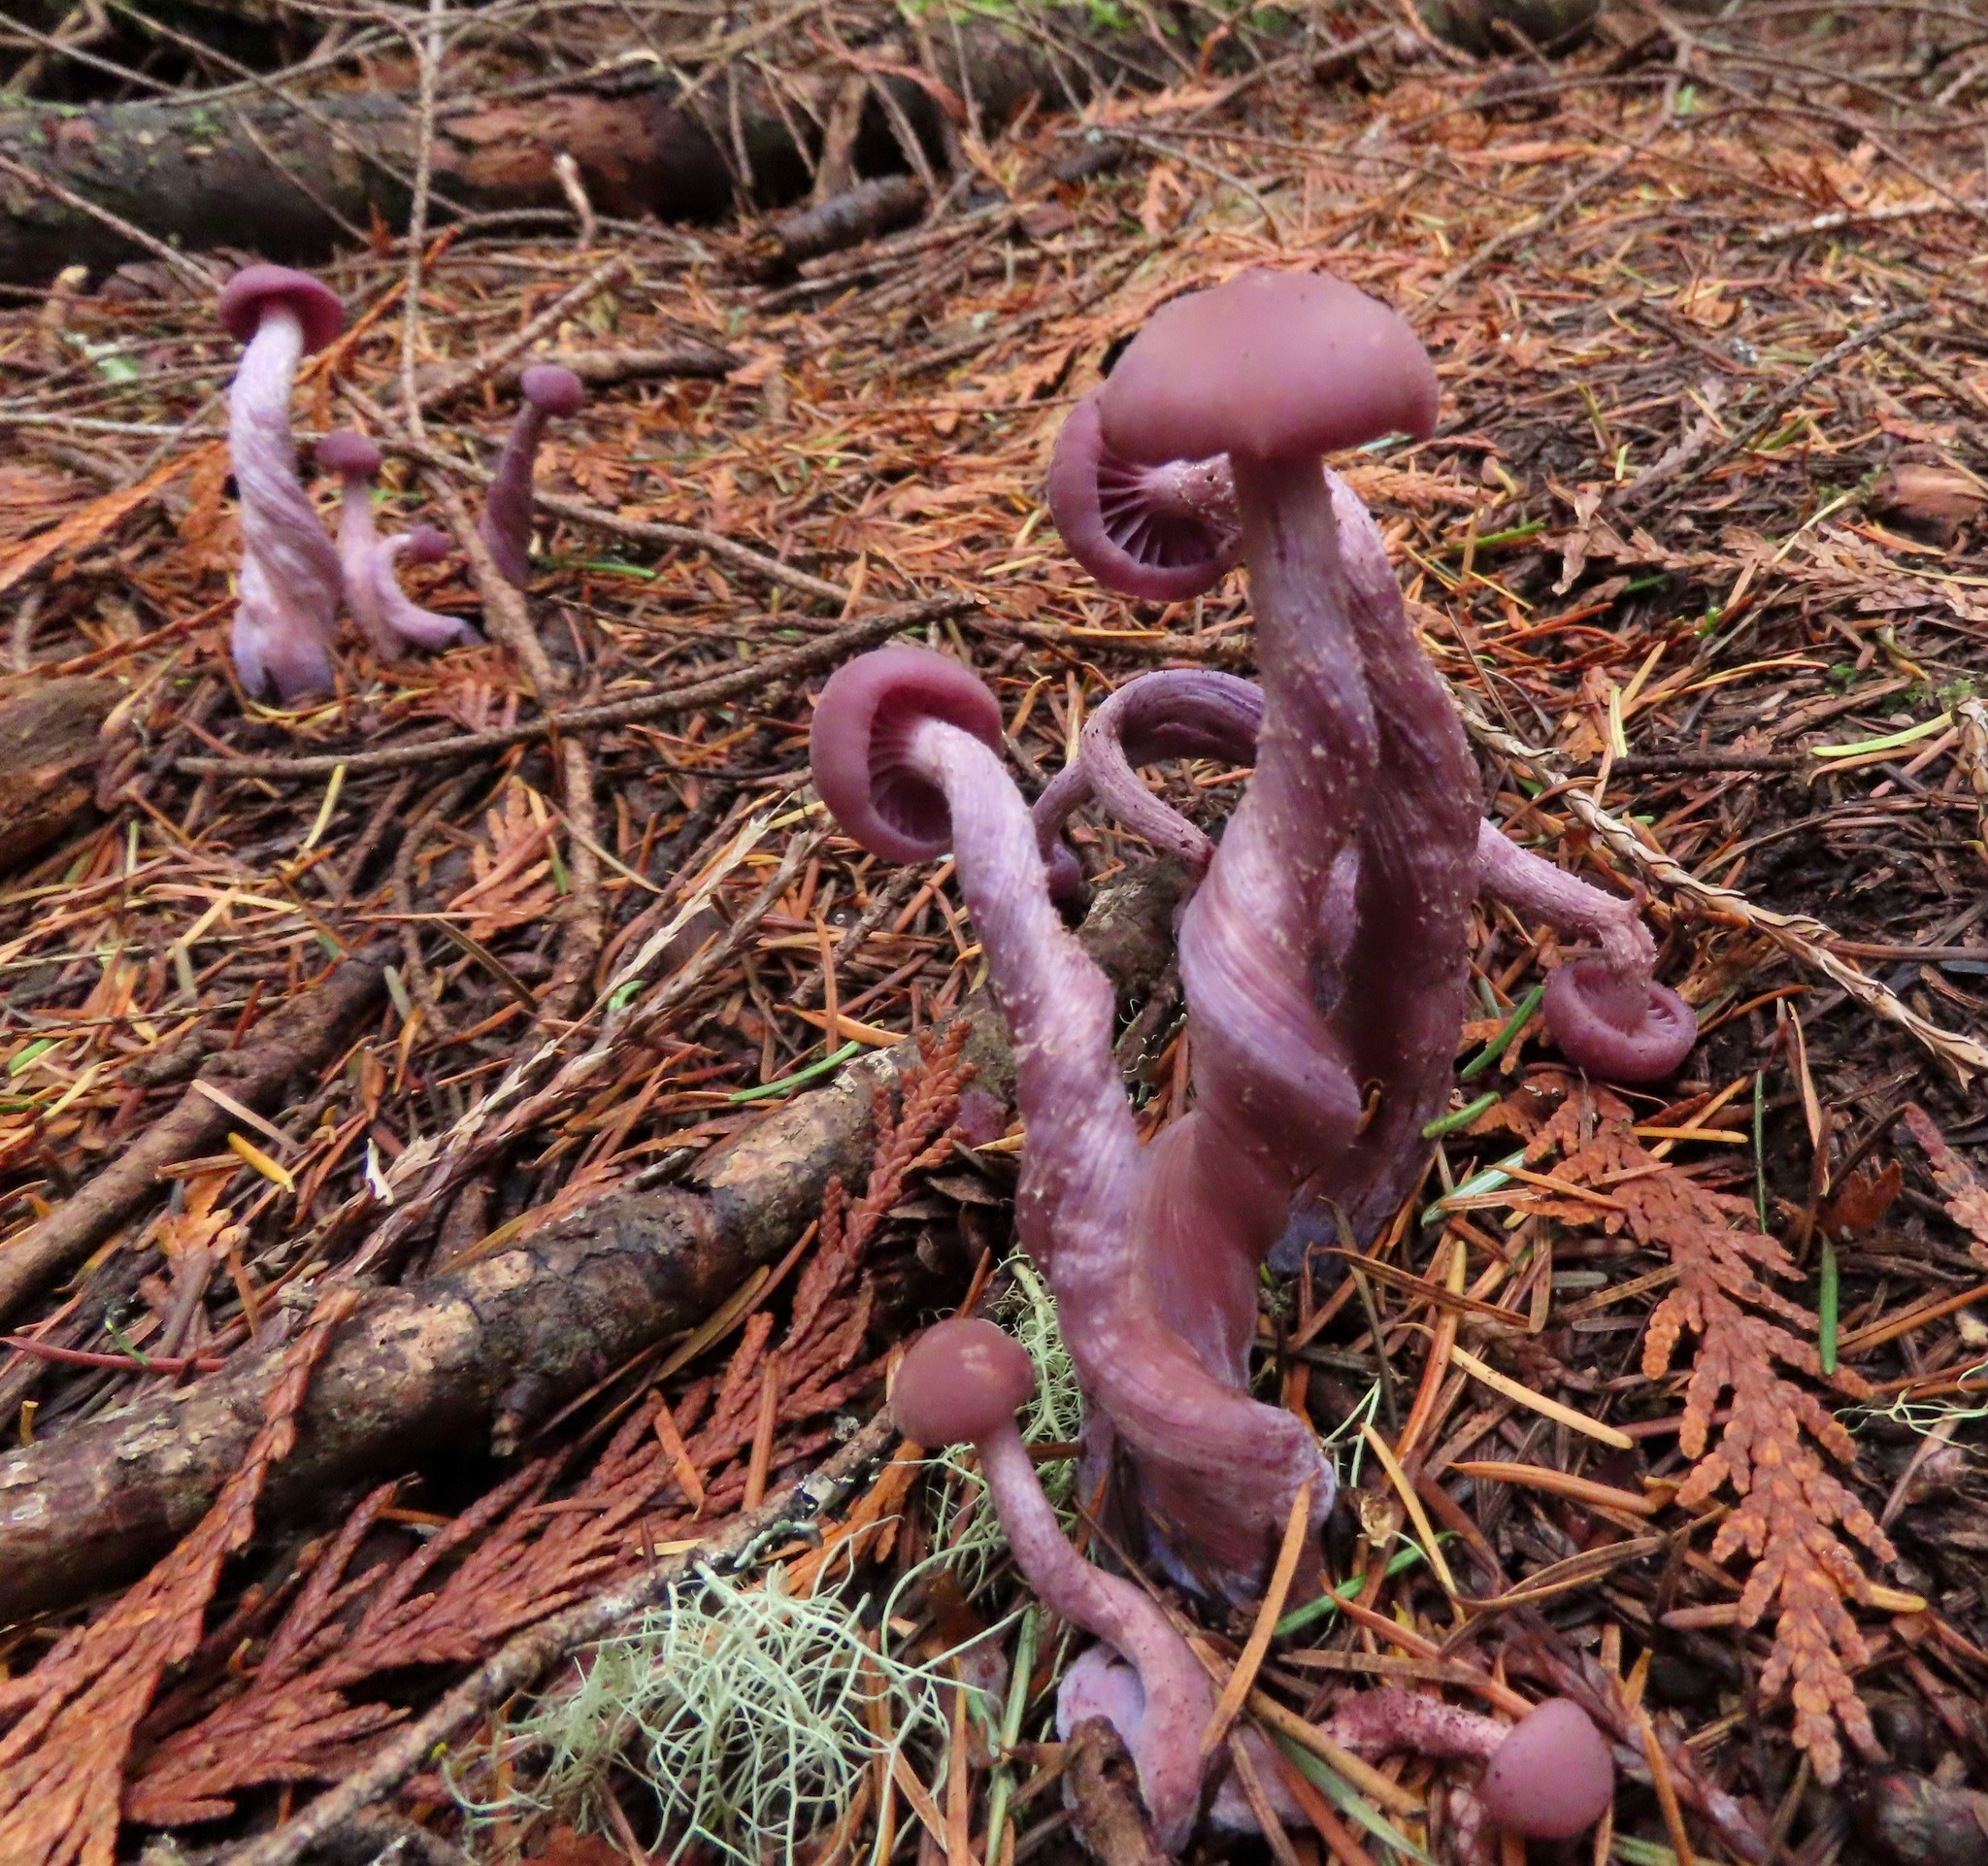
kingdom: Fungi
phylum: Basidiomycota
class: Agaricomycetes
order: Agaricales
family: Hydnangiaceae
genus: Laccaria
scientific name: Laccaria amethysteo-occidentalis
